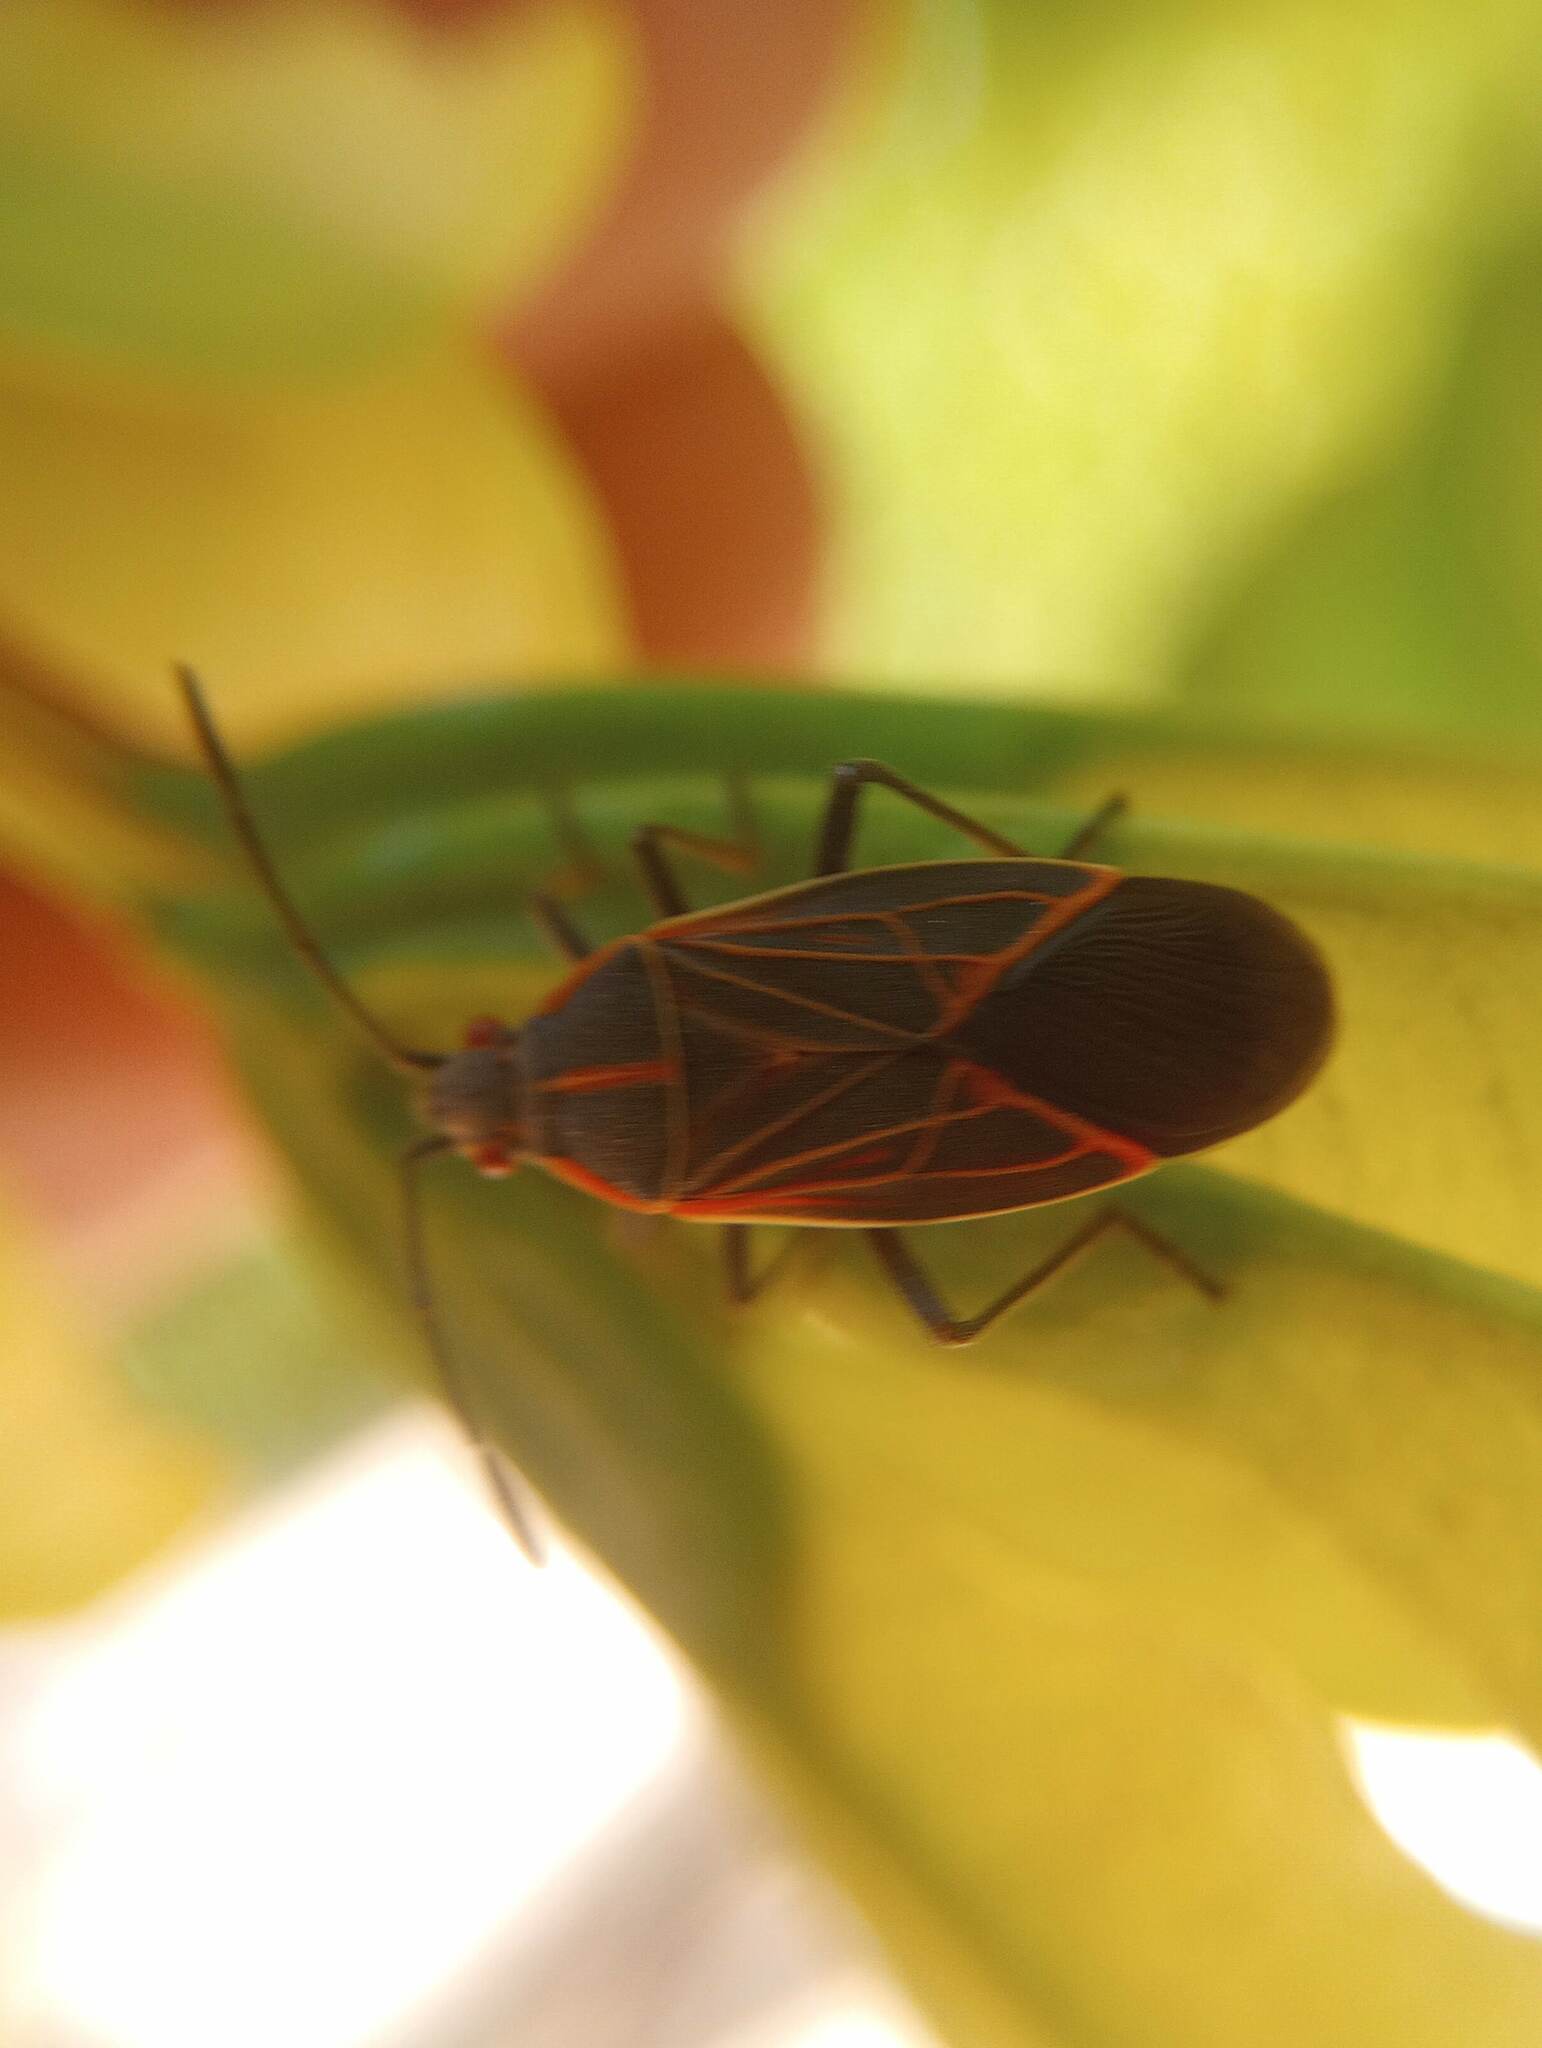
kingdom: Animalia
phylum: Arthropoda
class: Insecta
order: Hemiptera
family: Rhopalidae
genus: Boisea
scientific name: Boisea rubrolineata
